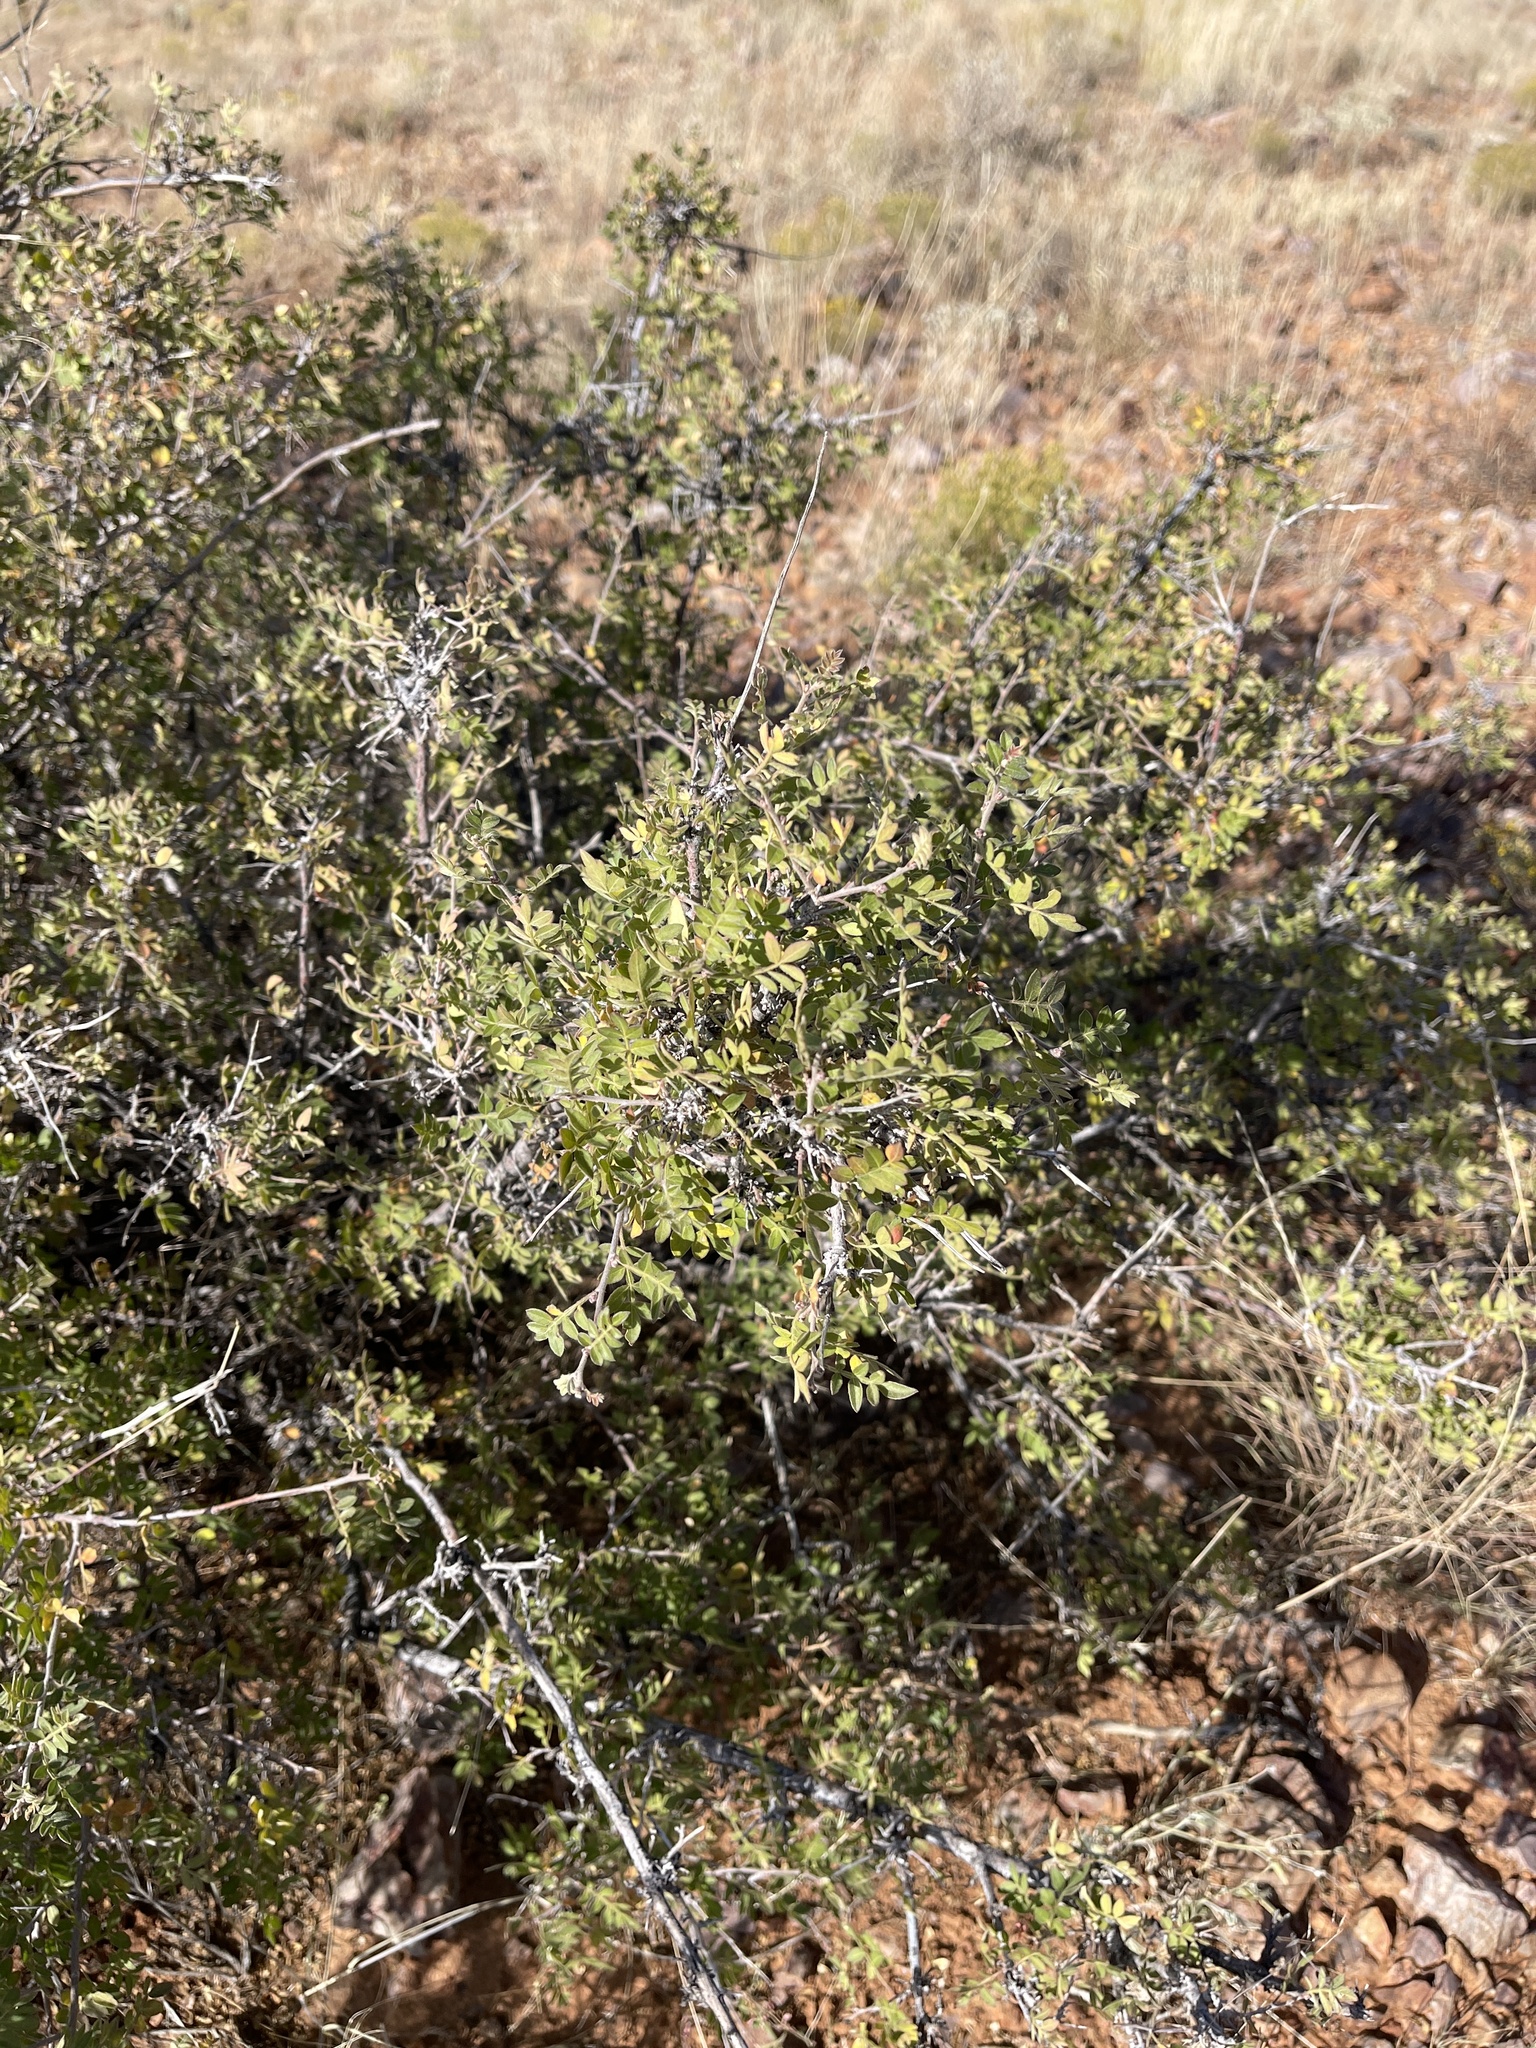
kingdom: Plantae
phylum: Tracheophyta
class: Magnoliopsida
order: Sapindales
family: Anacardiaceae
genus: Rhus
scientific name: Rhus microphylla
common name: Desert sumac
